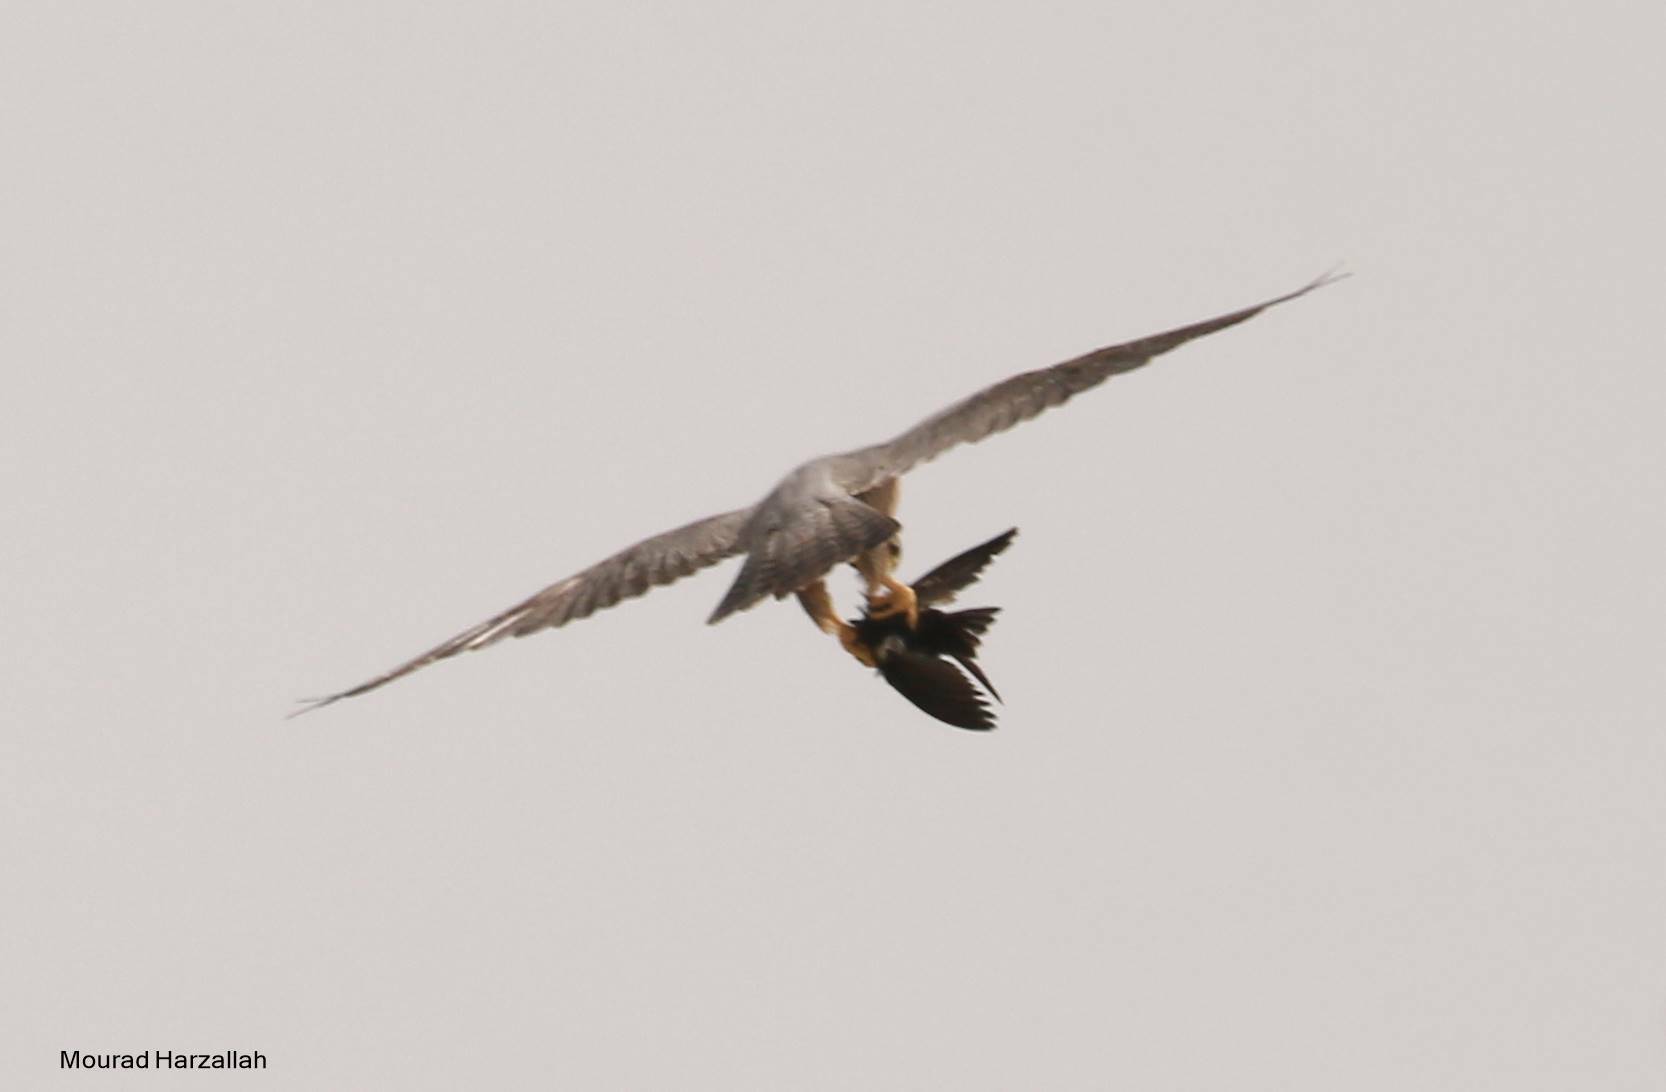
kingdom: Animalia
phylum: Chordata
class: Aves
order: Passeriformes
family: Hirundinidae
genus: Hirundo
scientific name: Hirundo rustica
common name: Barn swallow
